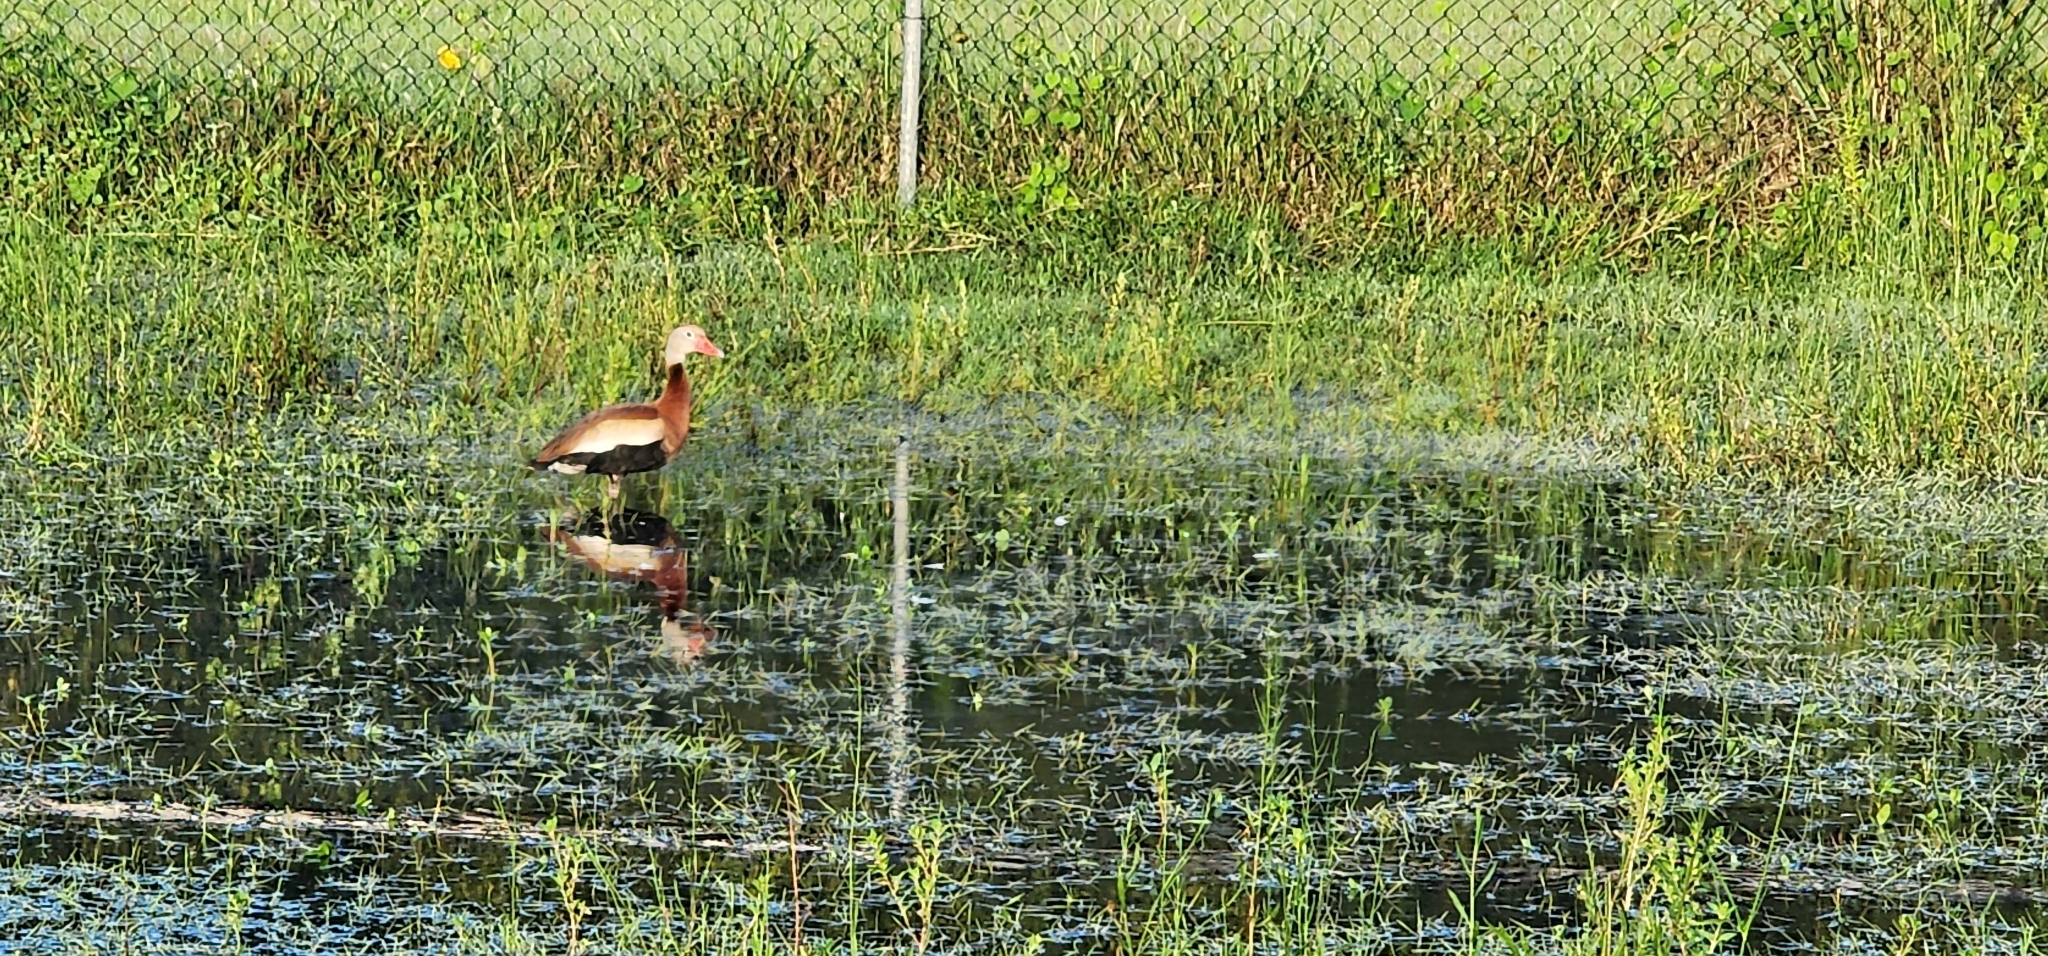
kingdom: Animalia
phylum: Chordata
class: Aves
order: Anseriformes
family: Anatidae
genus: Dendrocygna
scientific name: Dendrocygna autumnalis
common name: Black-bellied whistling duck
